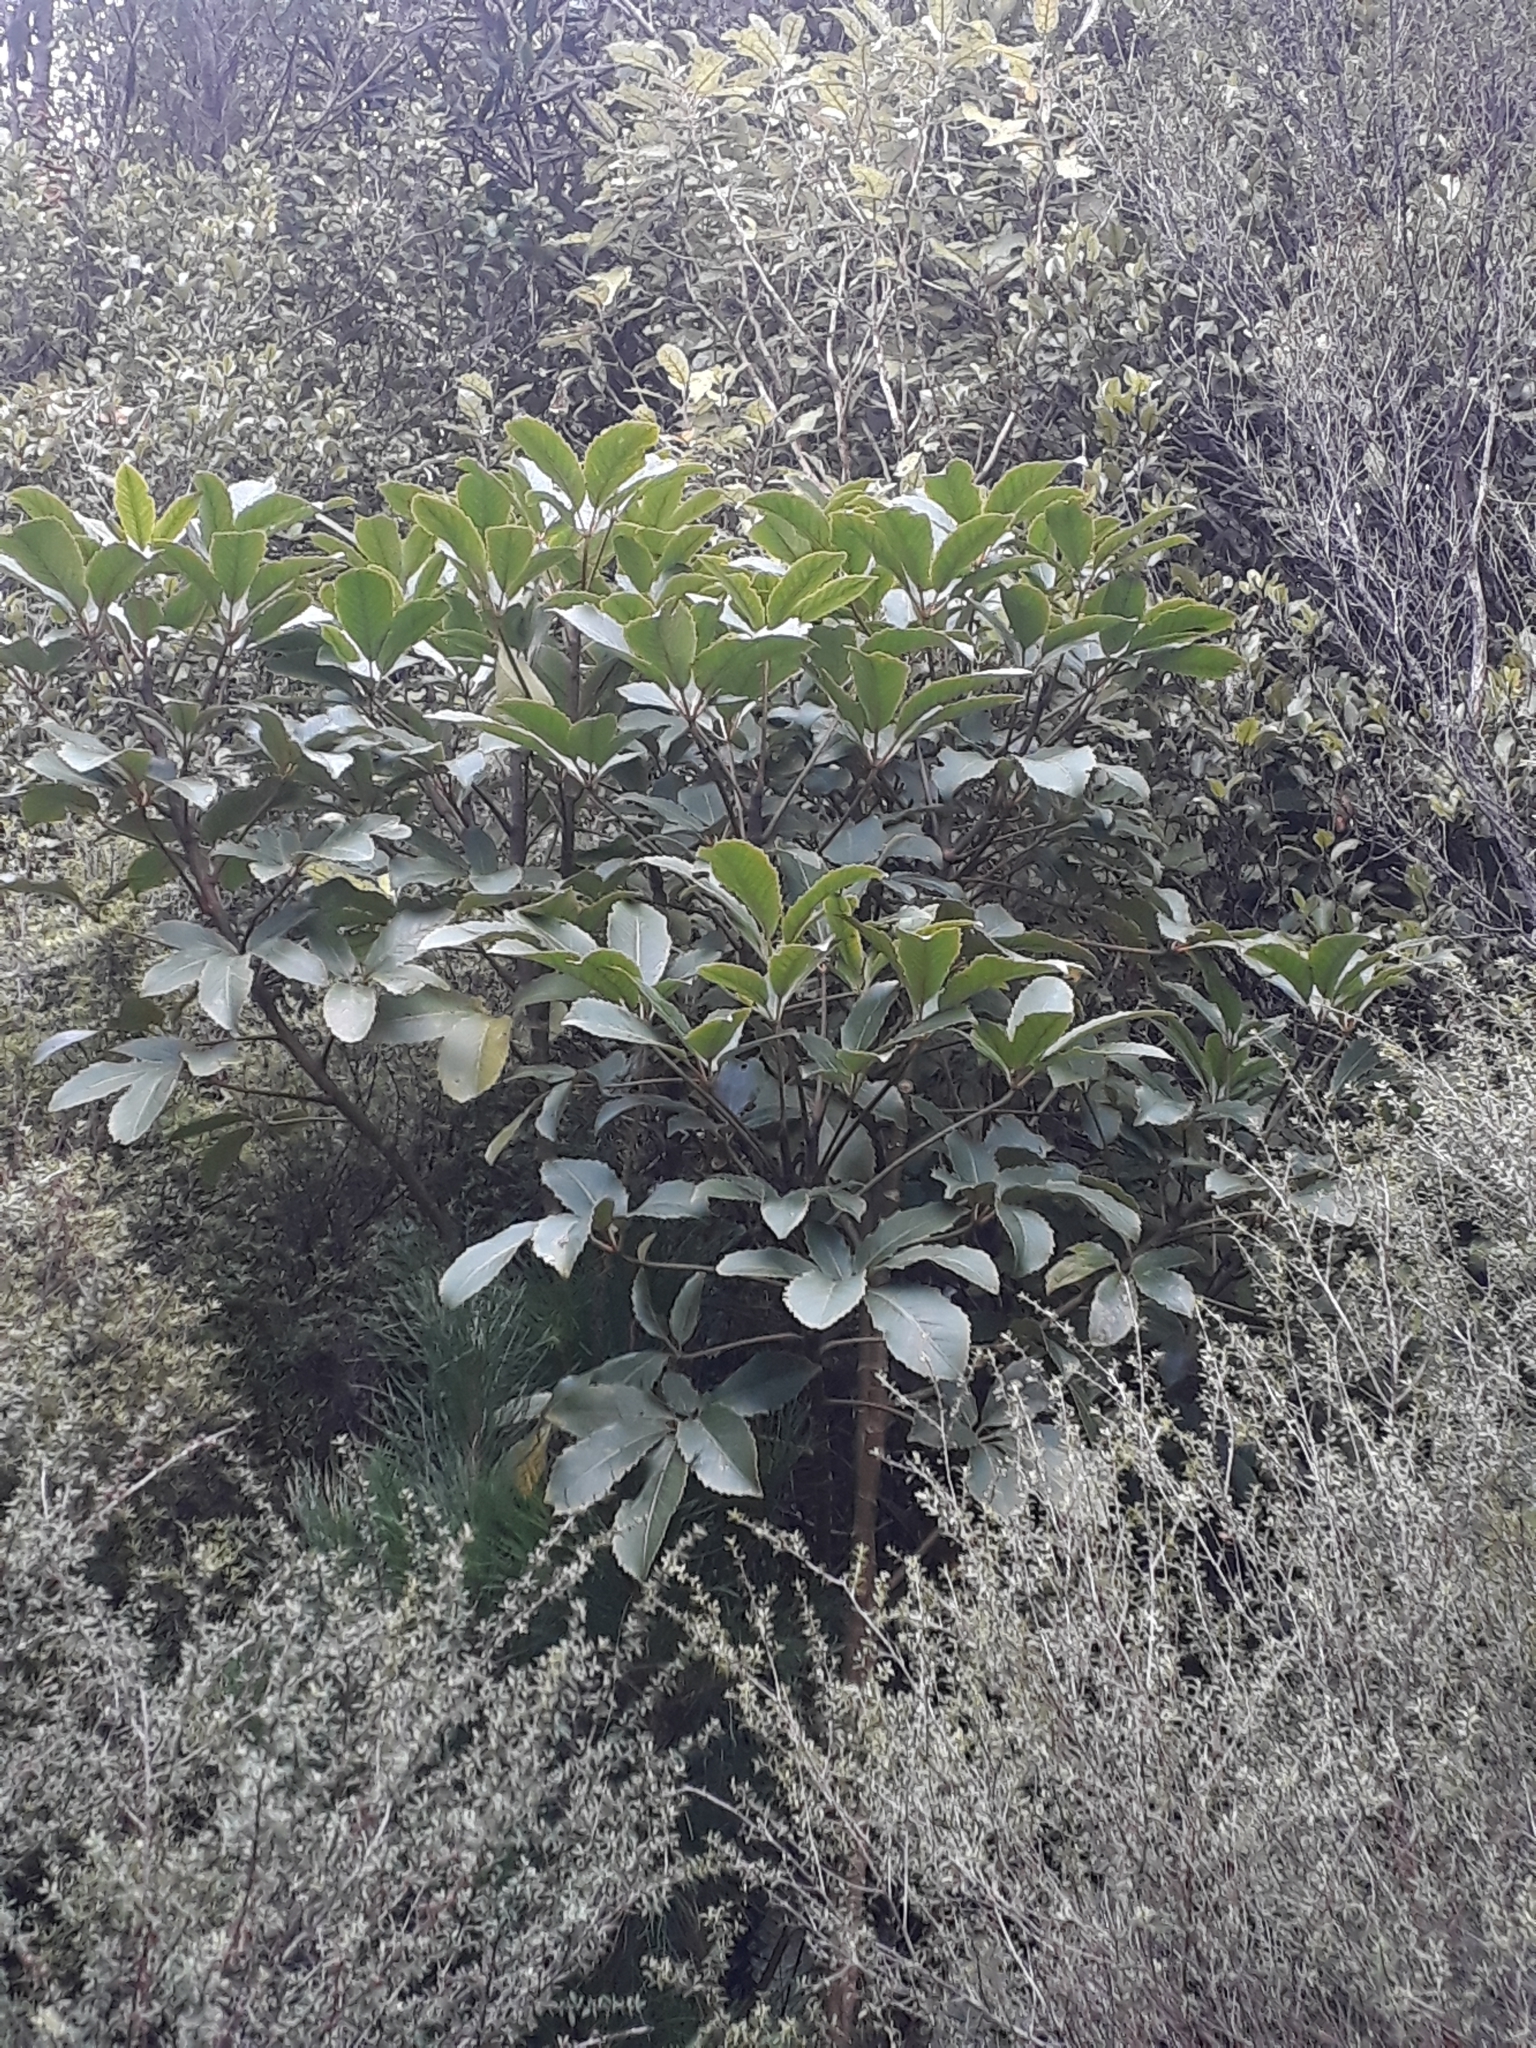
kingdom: Plantae
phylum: Tracheophyta
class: Magnoliopsida
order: Apiales
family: Araliaceae
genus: Neopanax
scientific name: Neopanax arboreus
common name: Five-fingers
